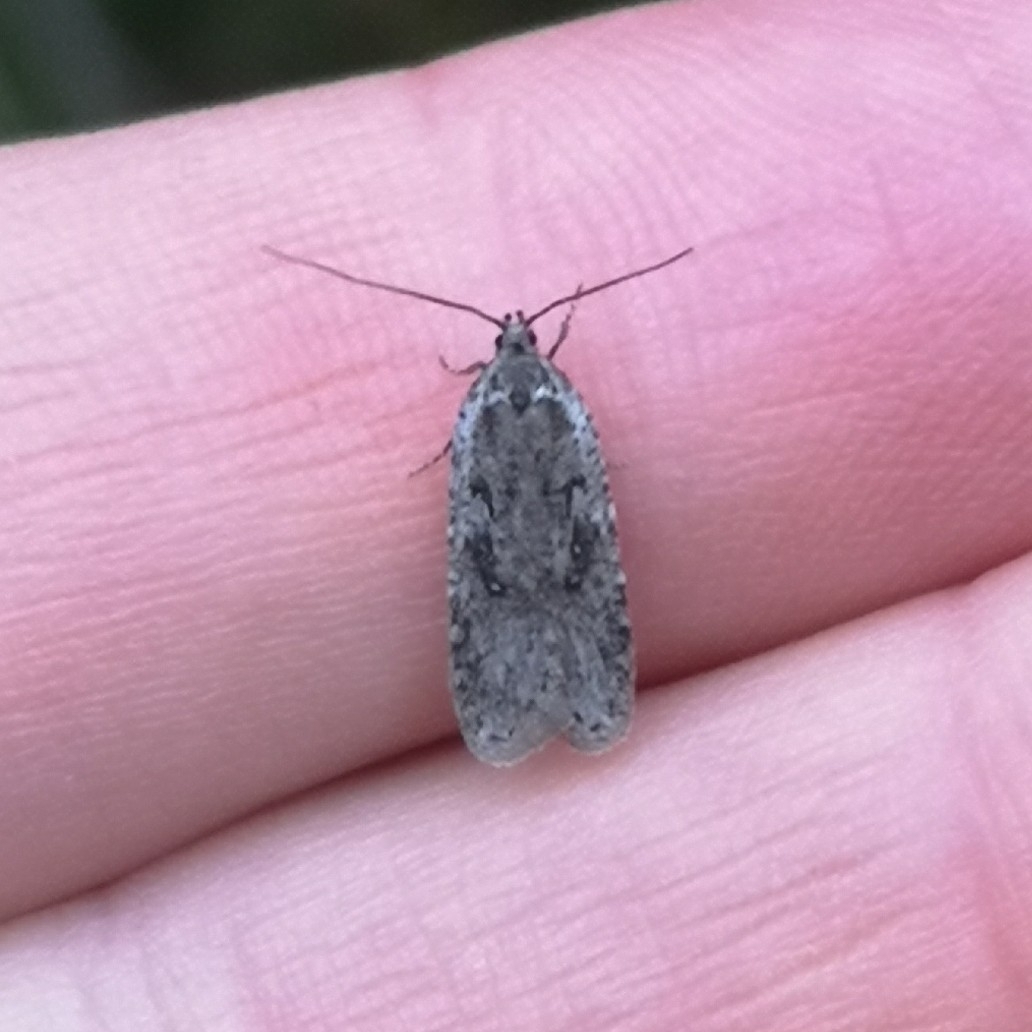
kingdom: Animalia
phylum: Arthropoda
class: Insecta
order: Lepidoptera
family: Depressariidae
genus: Exaeretia
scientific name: Exaeretia ciniflonella
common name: Scotch flat-body
